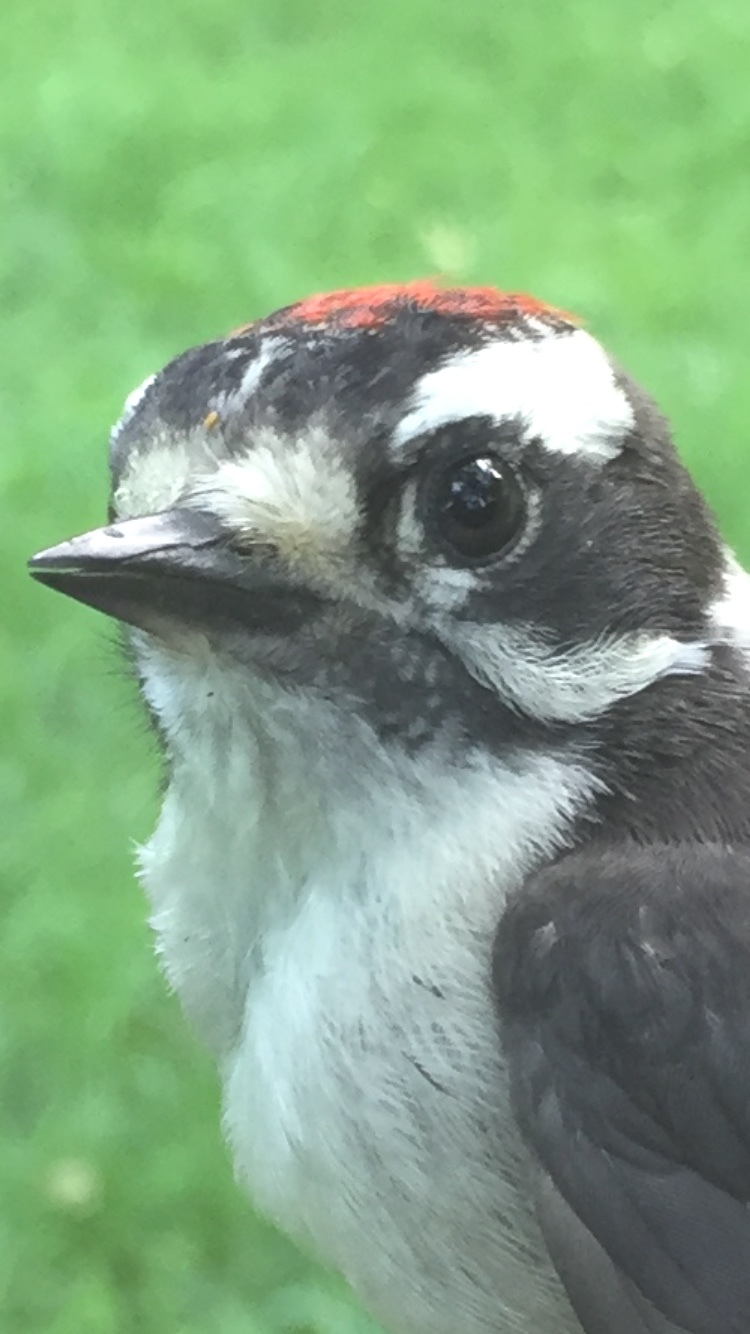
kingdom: Animalia
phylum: Chordata
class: Aves
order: Piciformes
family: Picidae
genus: Dryobates
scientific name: Dryobates pubescens
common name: Downy woodpecker
